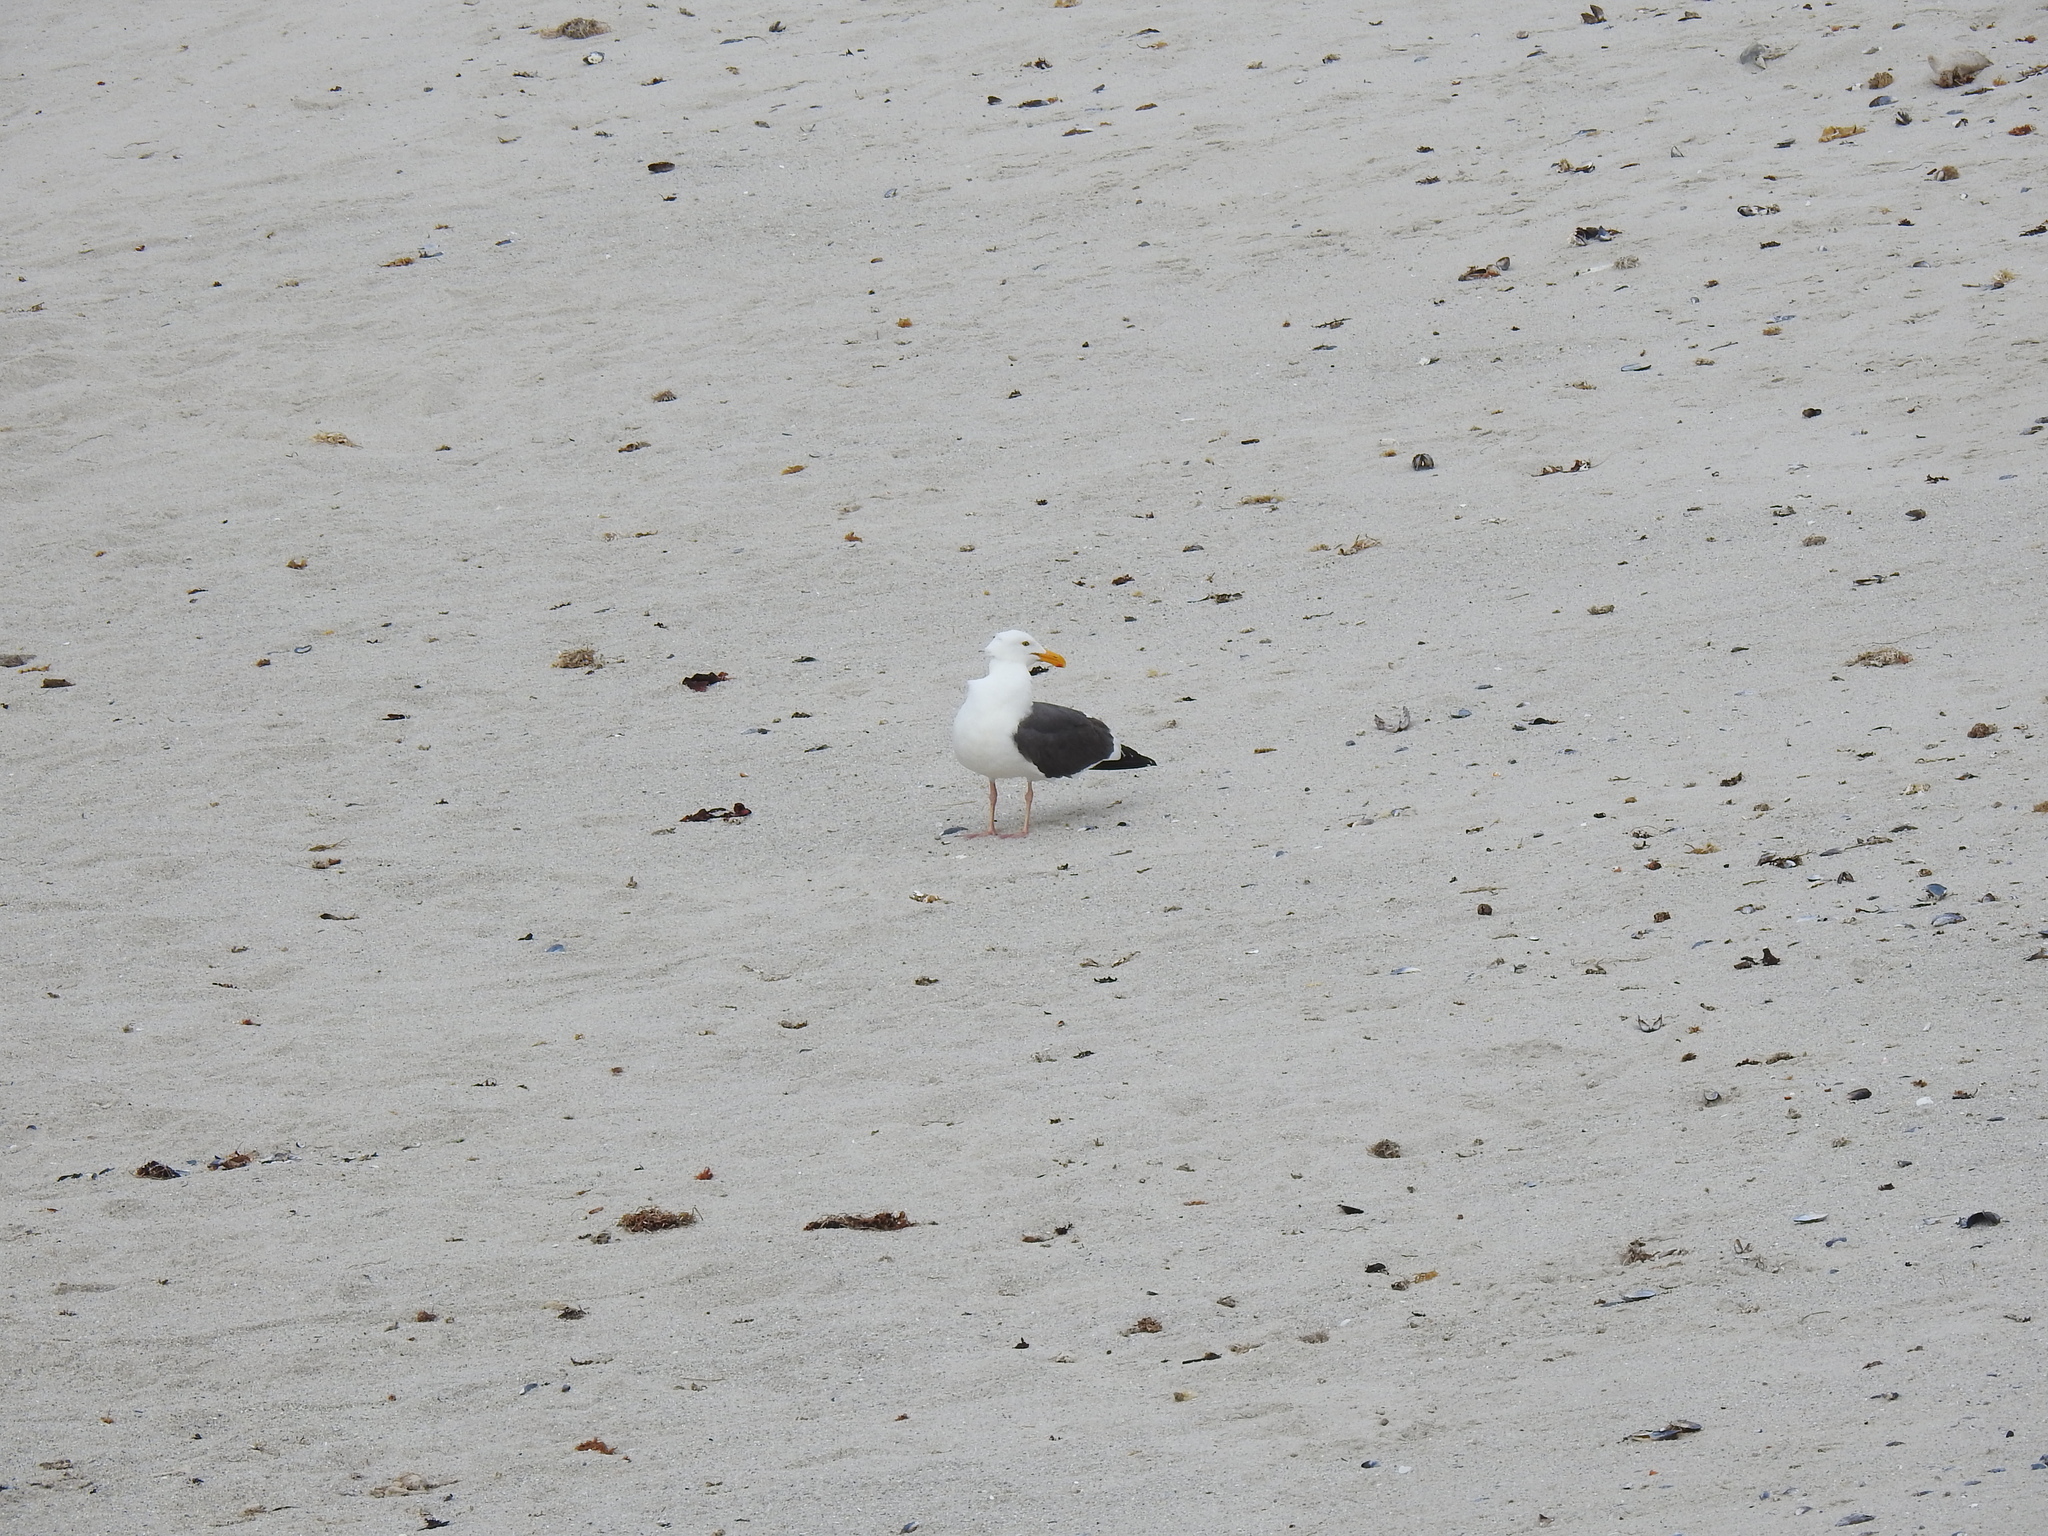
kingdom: Animalia
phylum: Chordata
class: Aves
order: Charadriiformes
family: Laridae
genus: Larus
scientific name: Larus occidentalis
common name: Western gull
